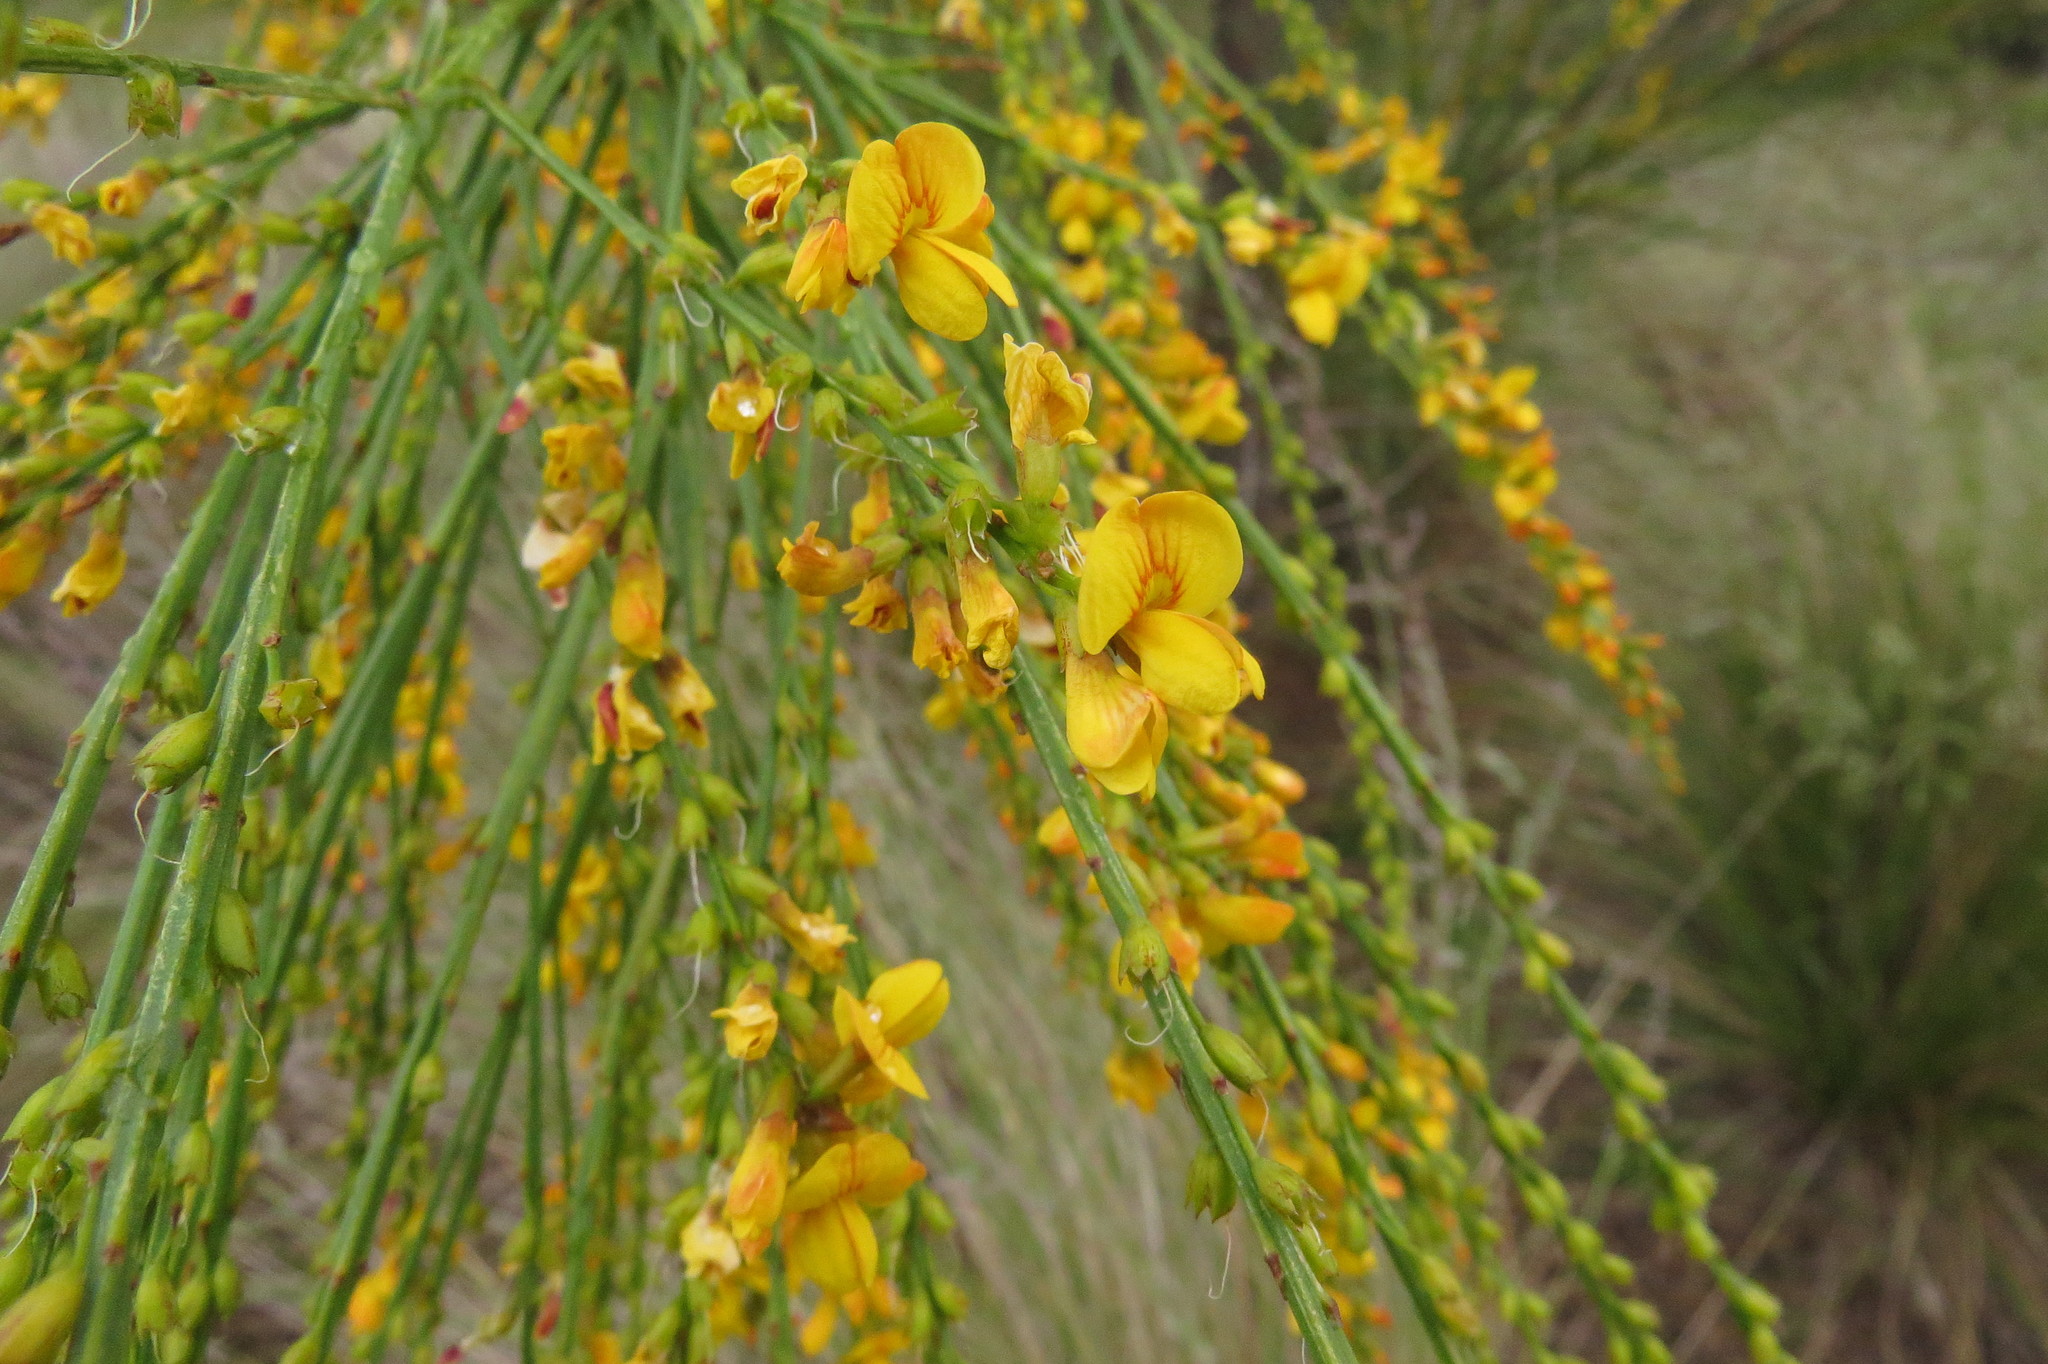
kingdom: Plantae
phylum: Tracheophyta
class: Magnoliopsida
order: Fabales
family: Fabaceae
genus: Viminaria
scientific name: Viminaria juncea
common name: Golden spray
